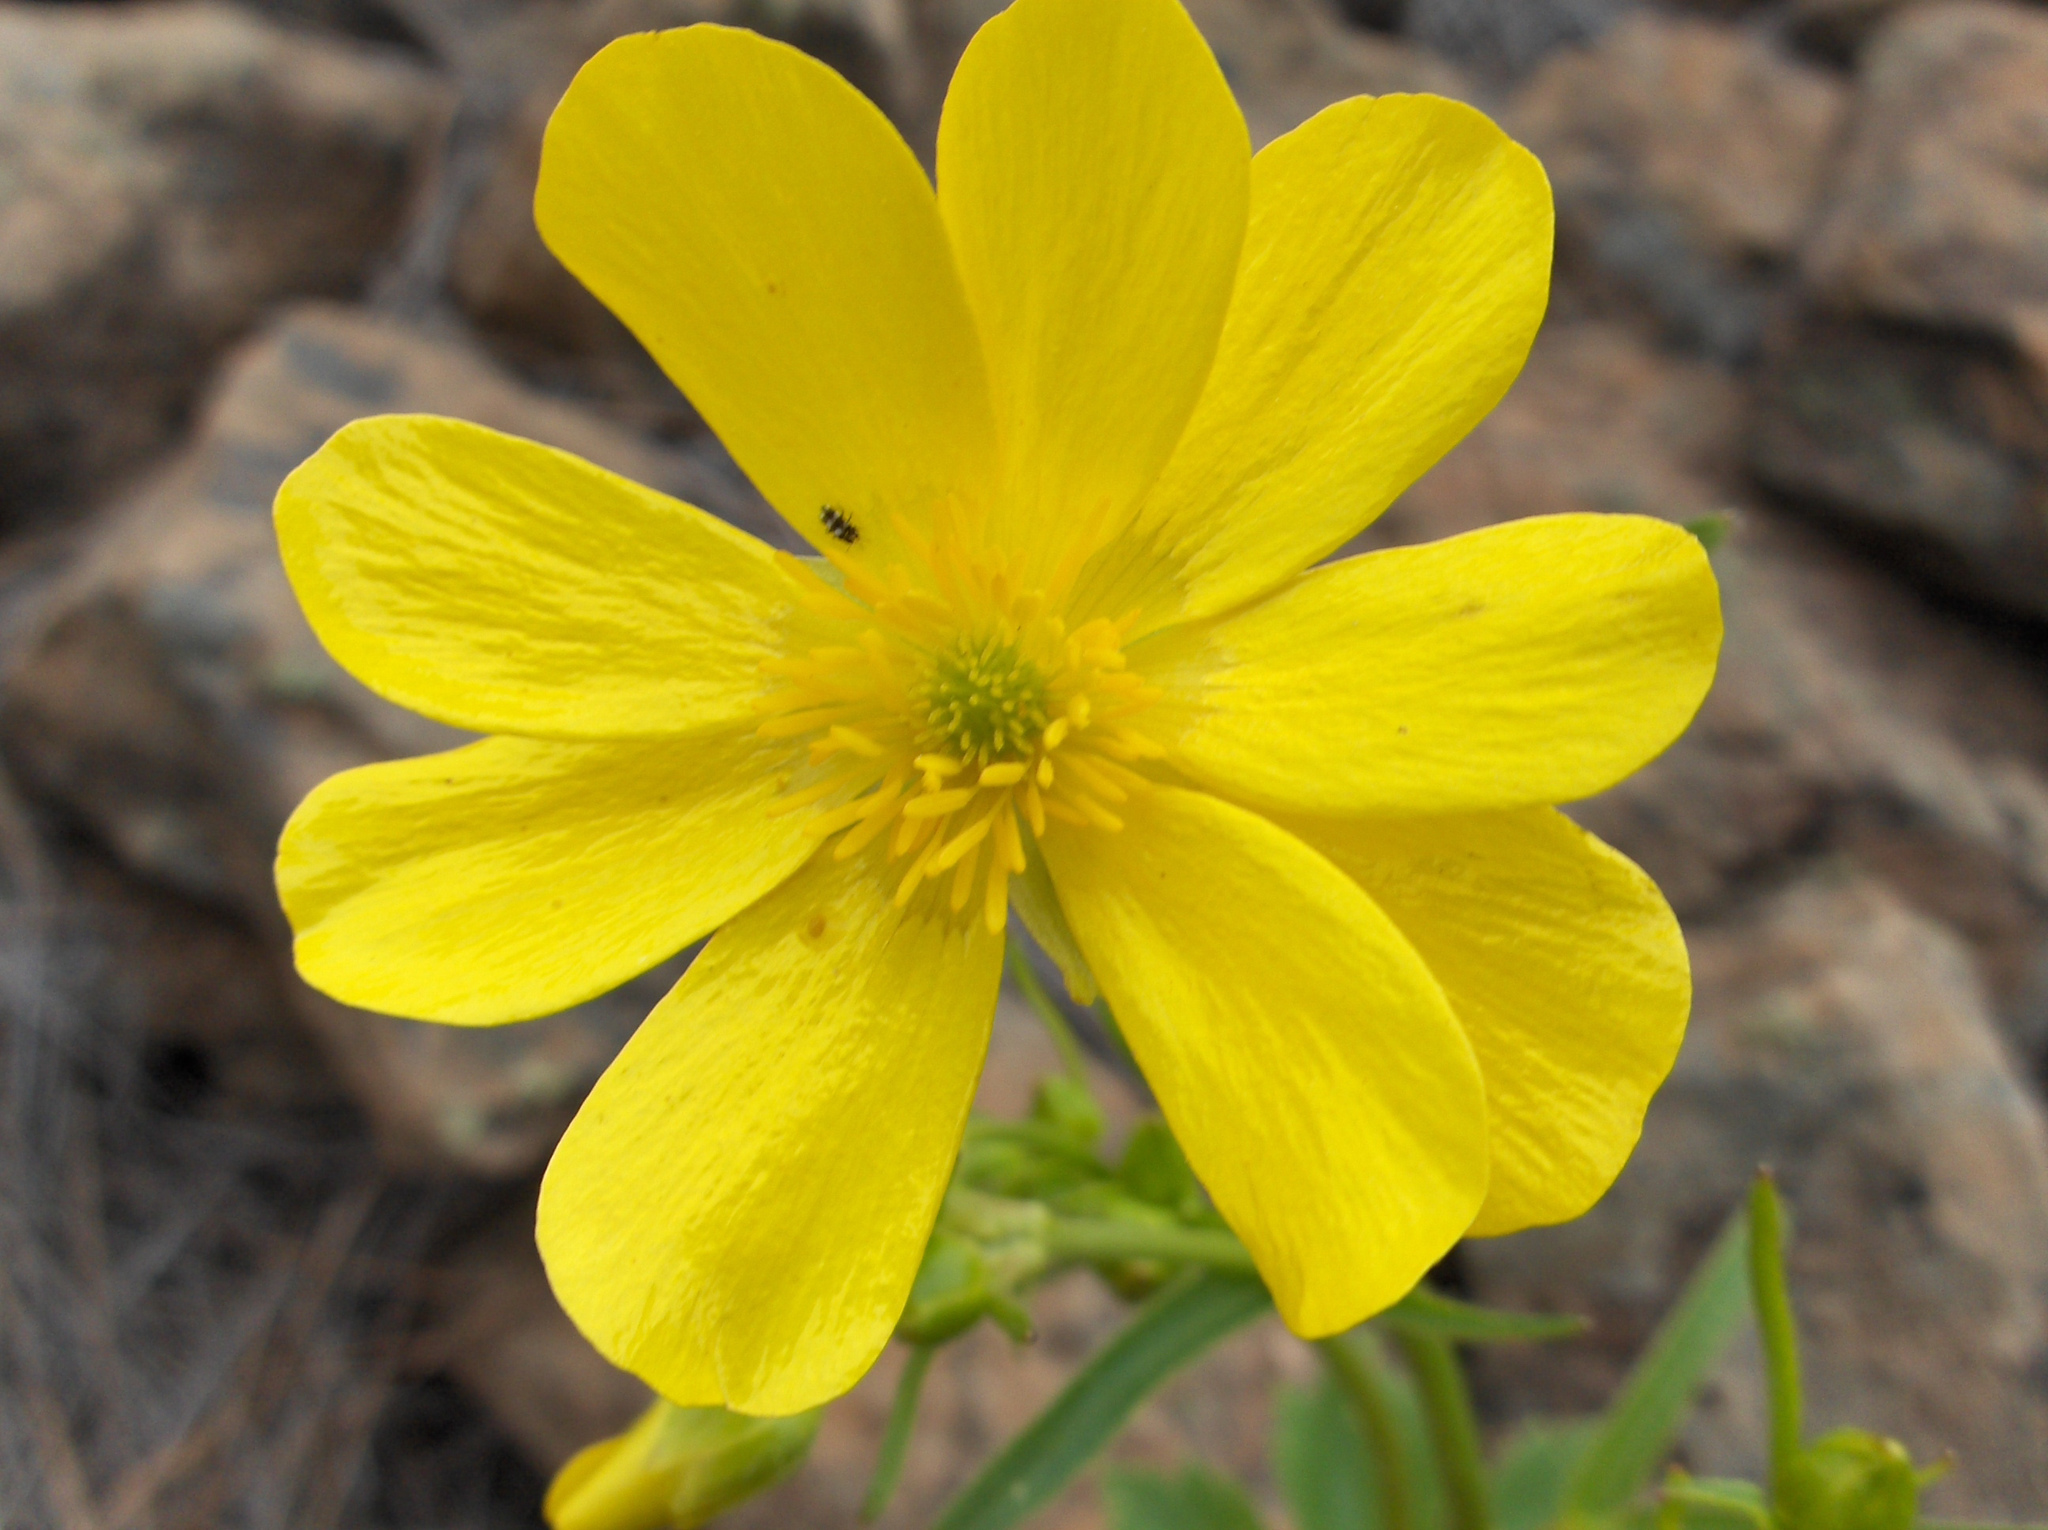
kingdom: Plantae
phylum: Tracheophyta
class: Magnoliopsida
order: Ranunculales
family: Ranunculaceae
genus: Ranunculus
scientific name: Ranunculus cortusifolius
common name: Azores buttercup
